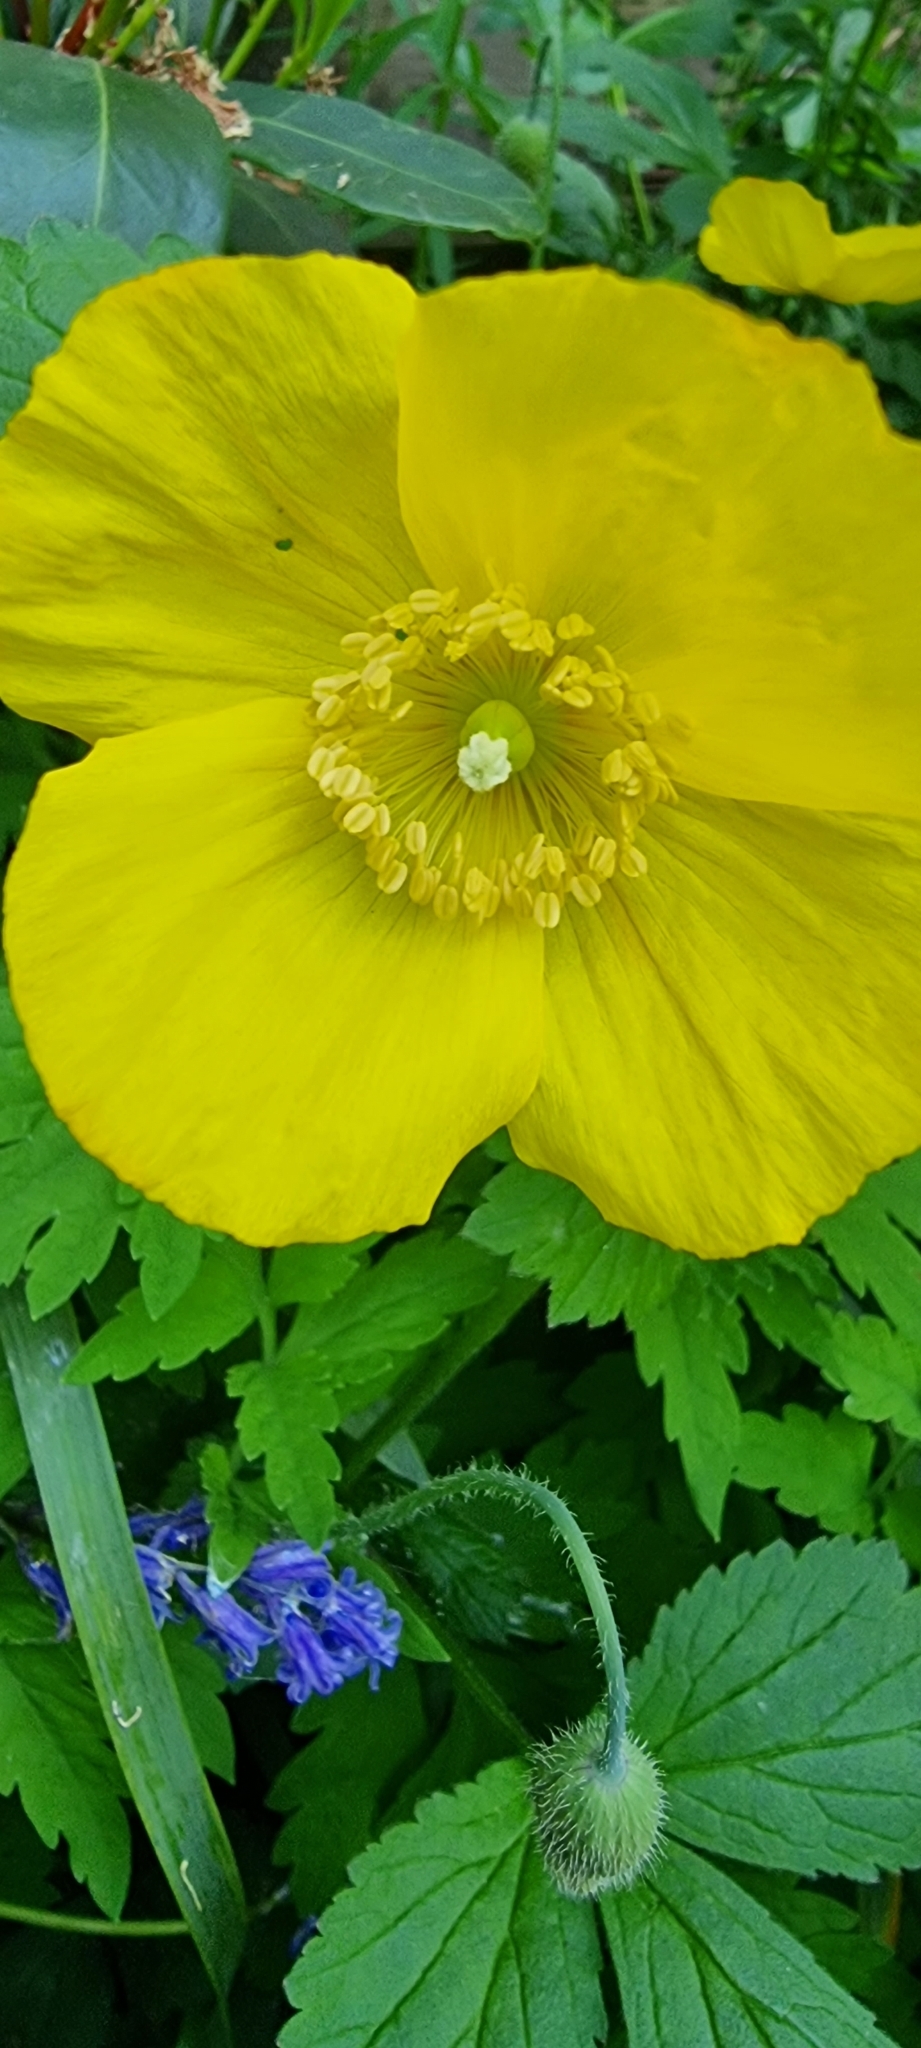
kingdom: Plantae
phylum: Tracheophyta
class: Magnoliopsida
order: Ranunculales
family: Papaveraceae
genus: Papaver
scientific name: Papaver cambricum
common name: Poppy
